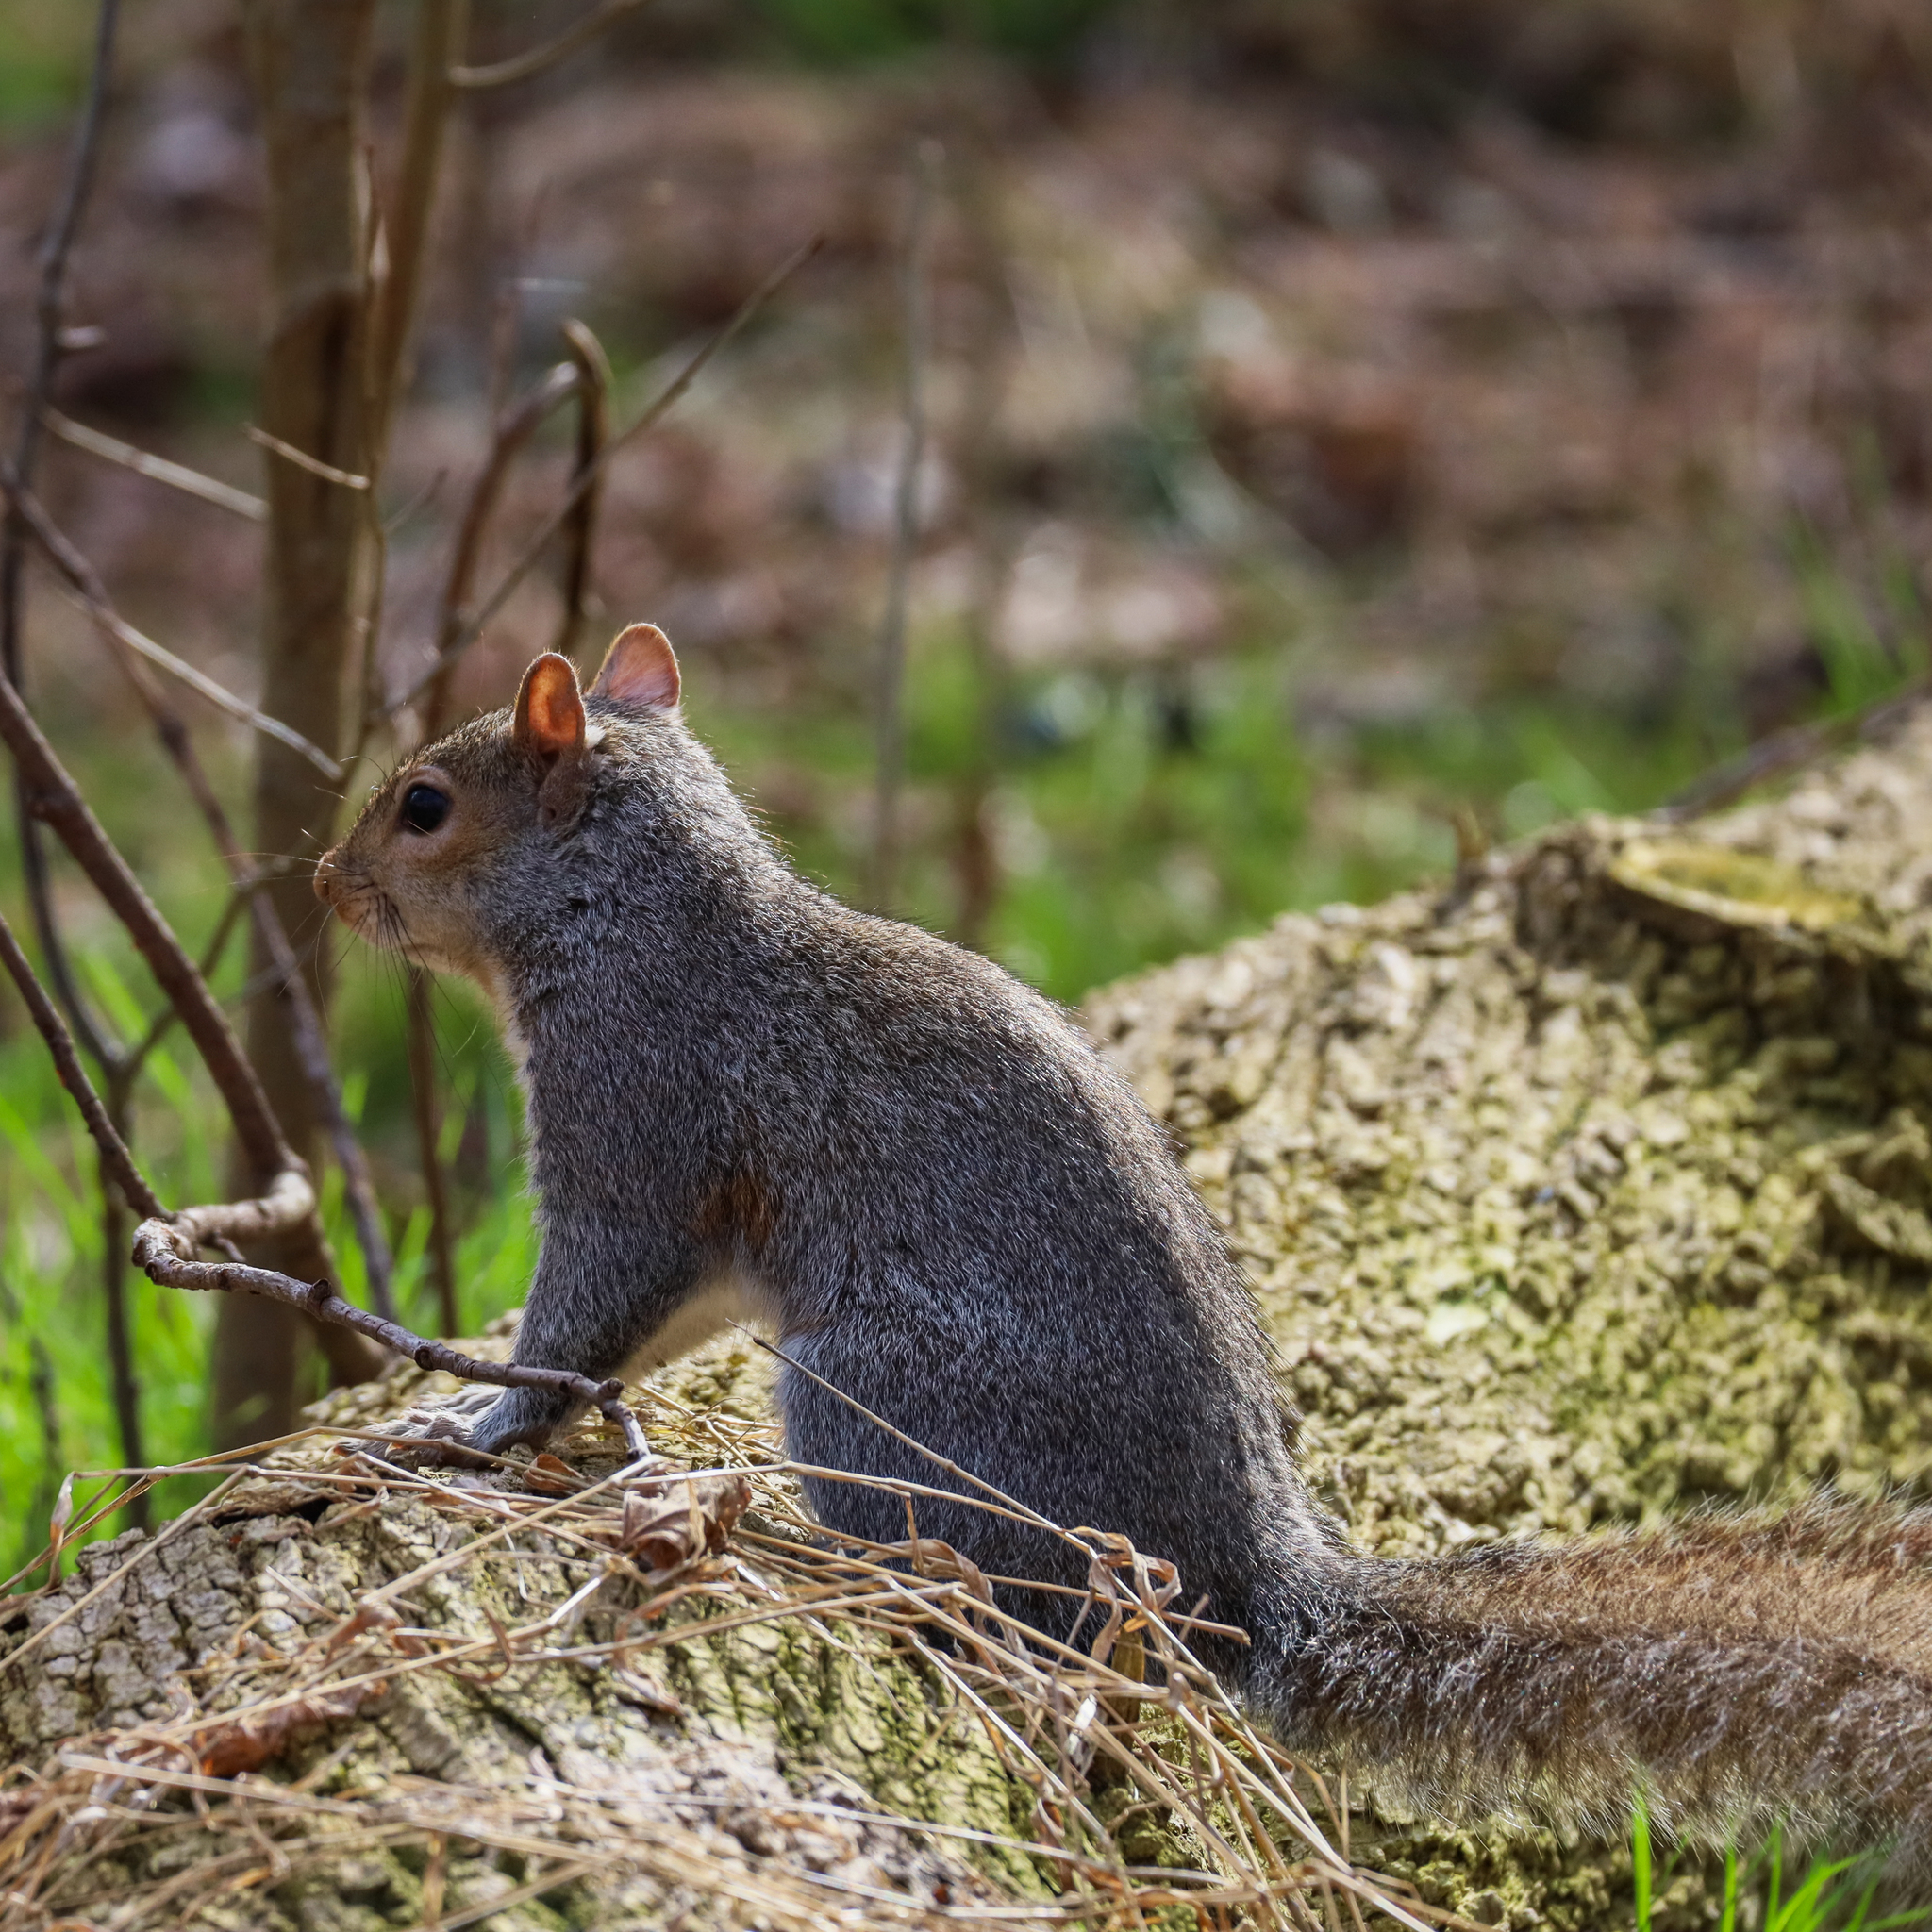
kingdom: Animalia
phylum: Chordata
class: Mammalia
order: Rodentia
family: Sciuridae
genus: Sciurus
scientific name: Sciurus carolinensis
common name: Eastern gray squirrel
